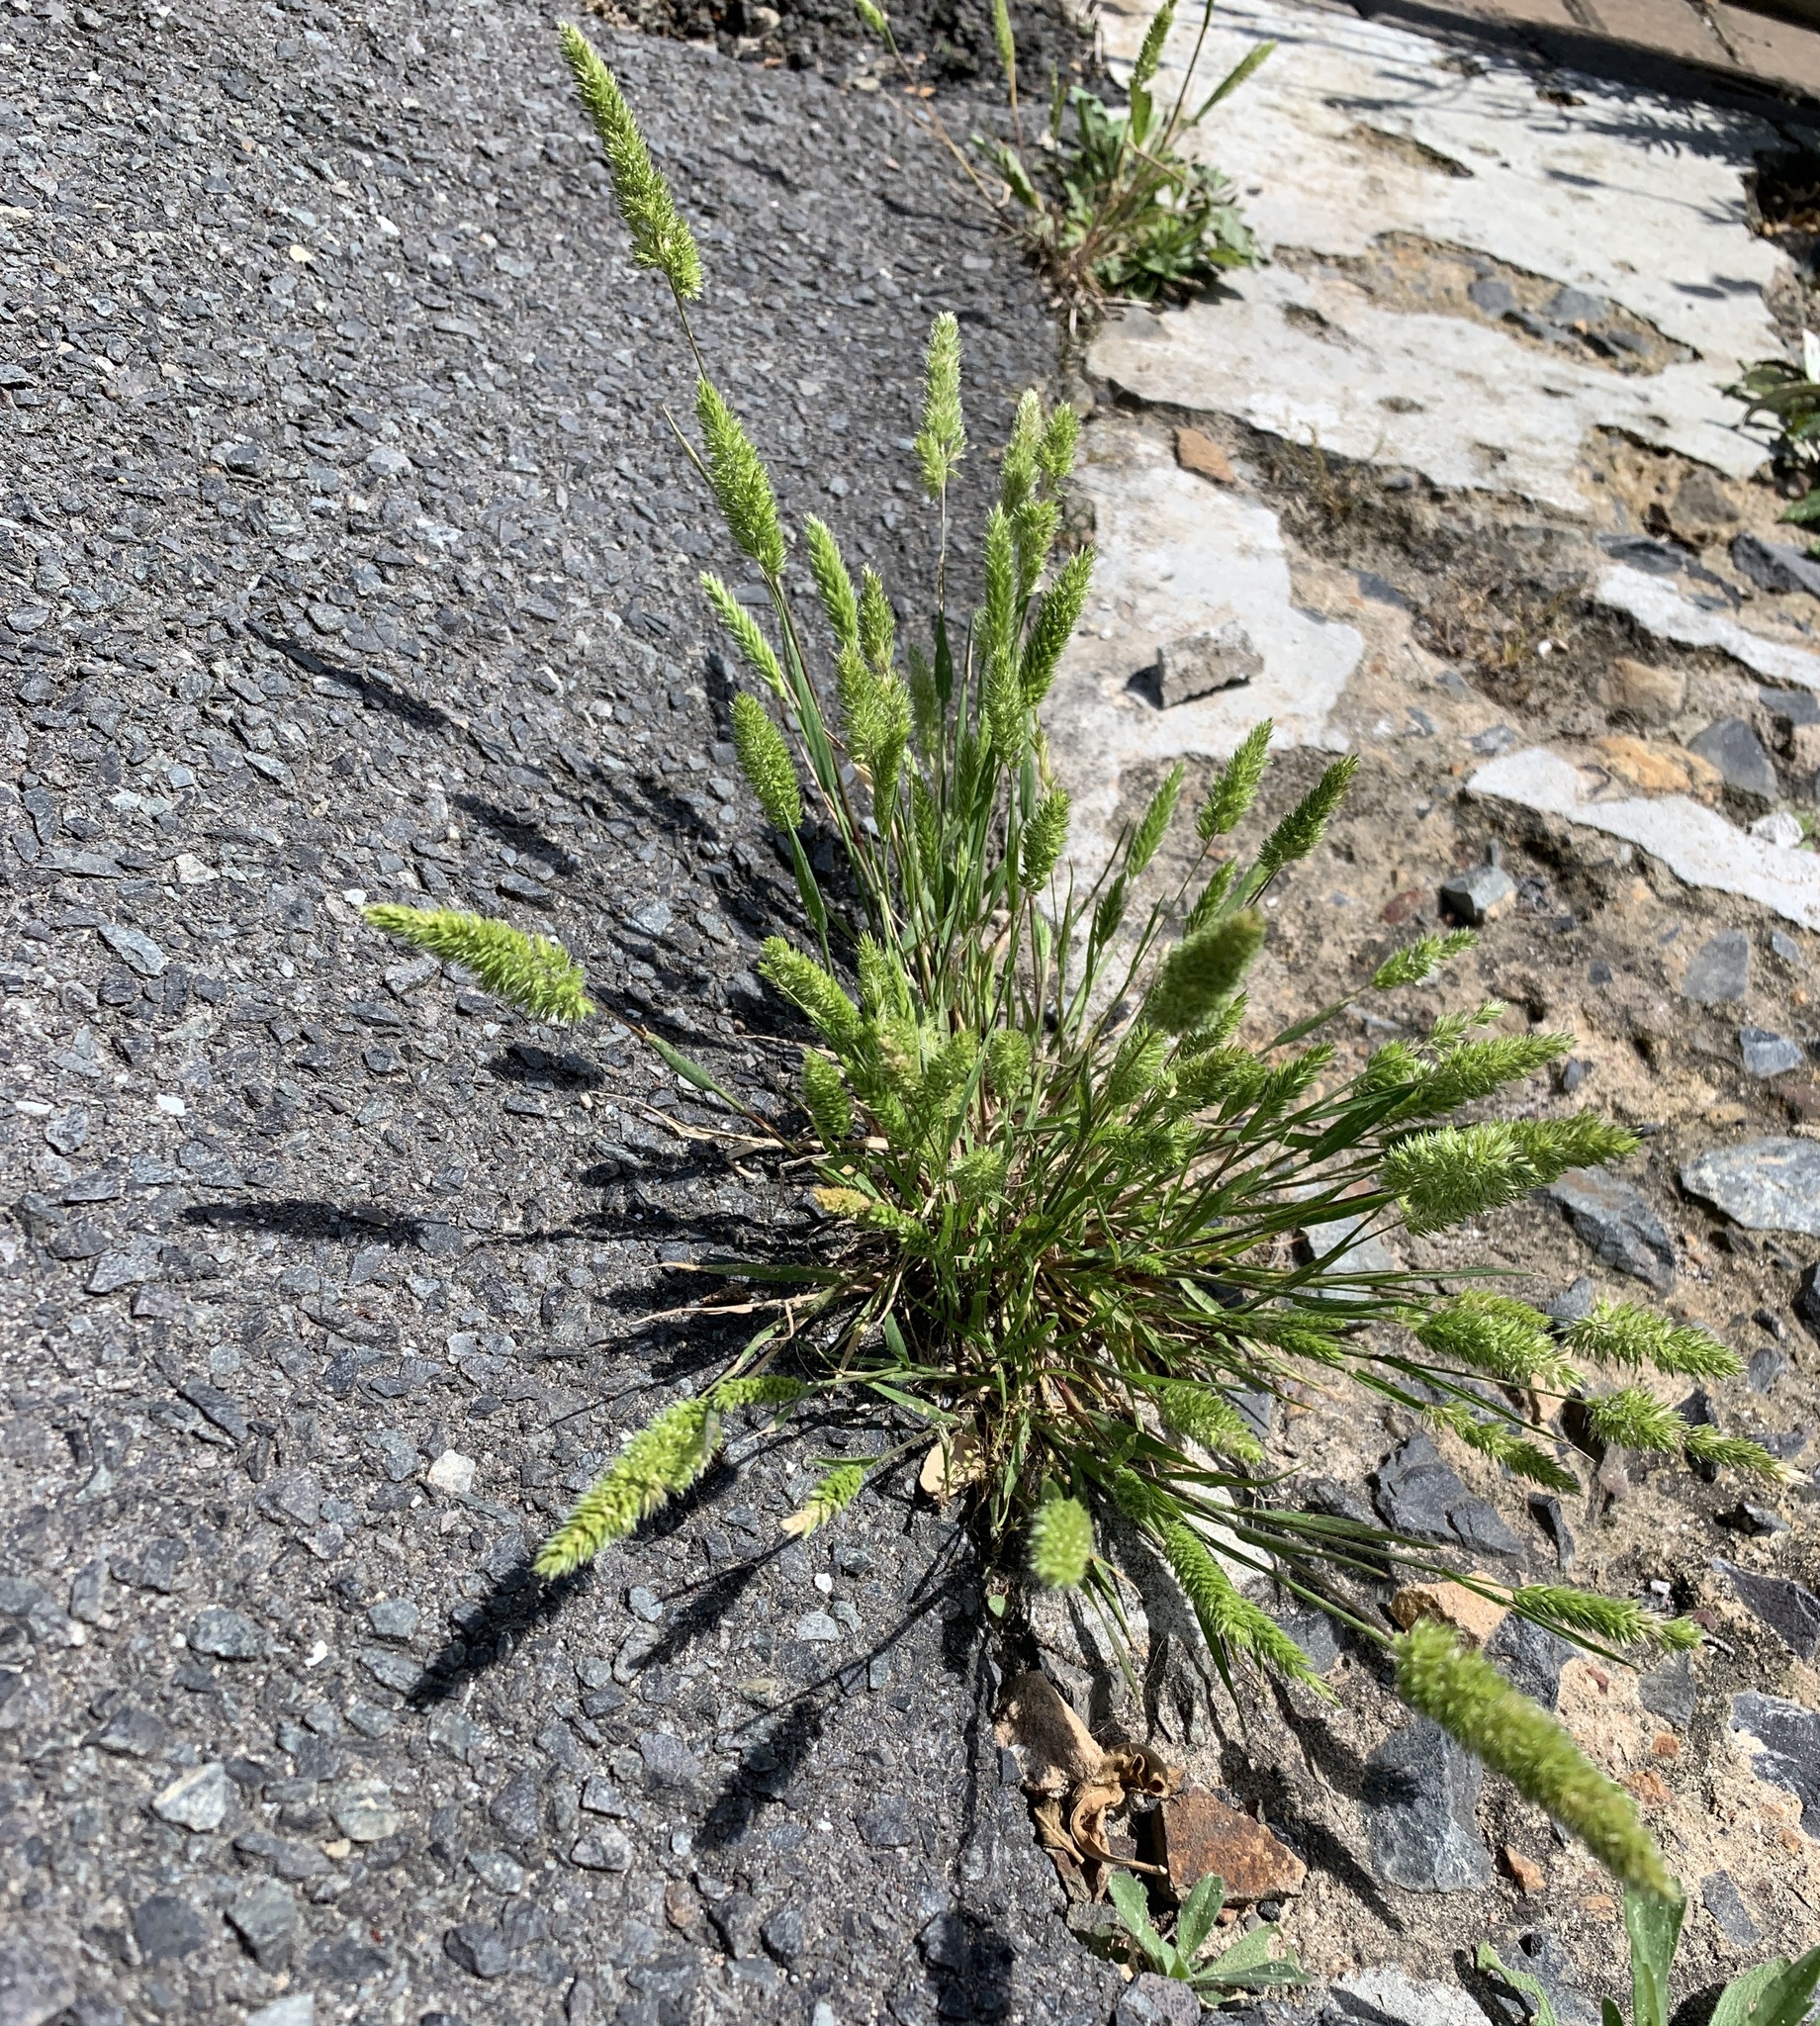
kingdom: Plantae
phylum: Tracheophyta
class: Liliopsida
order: Poales
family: Poaceae
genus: Rostraria
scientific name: Rostraria cristata
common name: Mediterranean hair-grass
